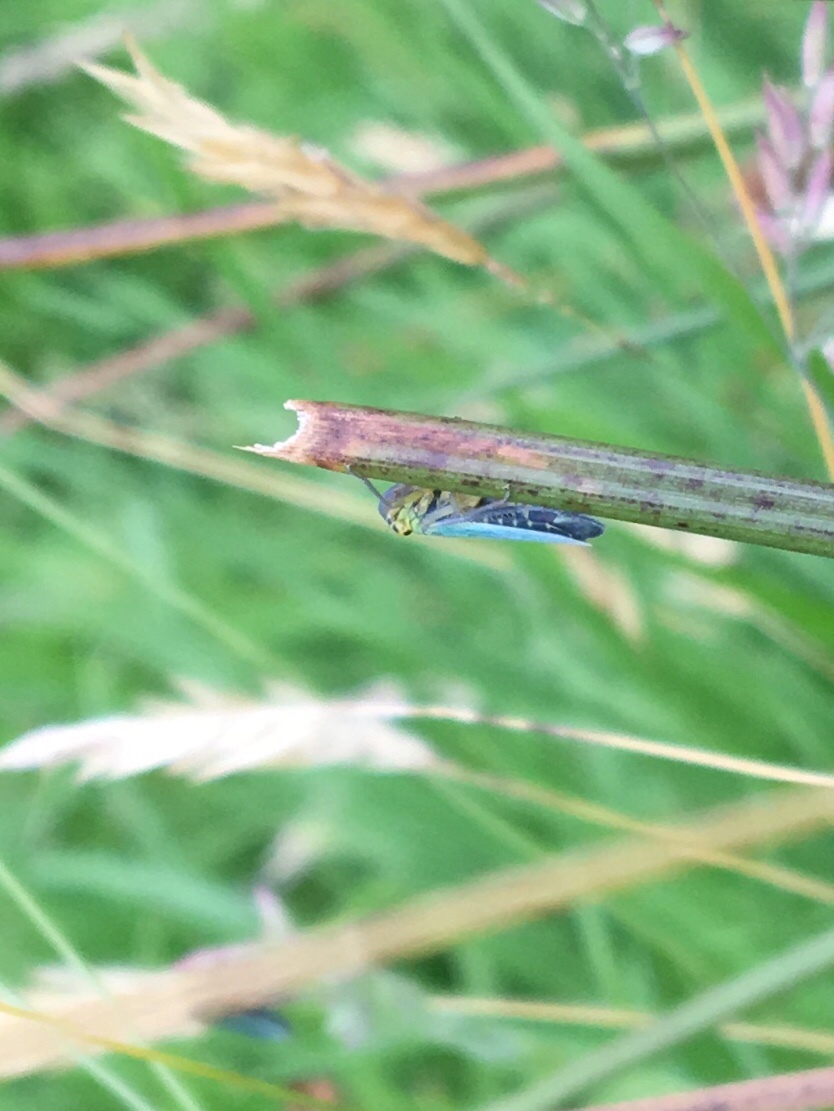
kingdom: Animalia
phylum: Arthropoda
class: Insecta
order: Hemiptera
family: Cicadellidae
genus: Cicadella
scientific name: Cicadella viridis
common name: Leafhopper
